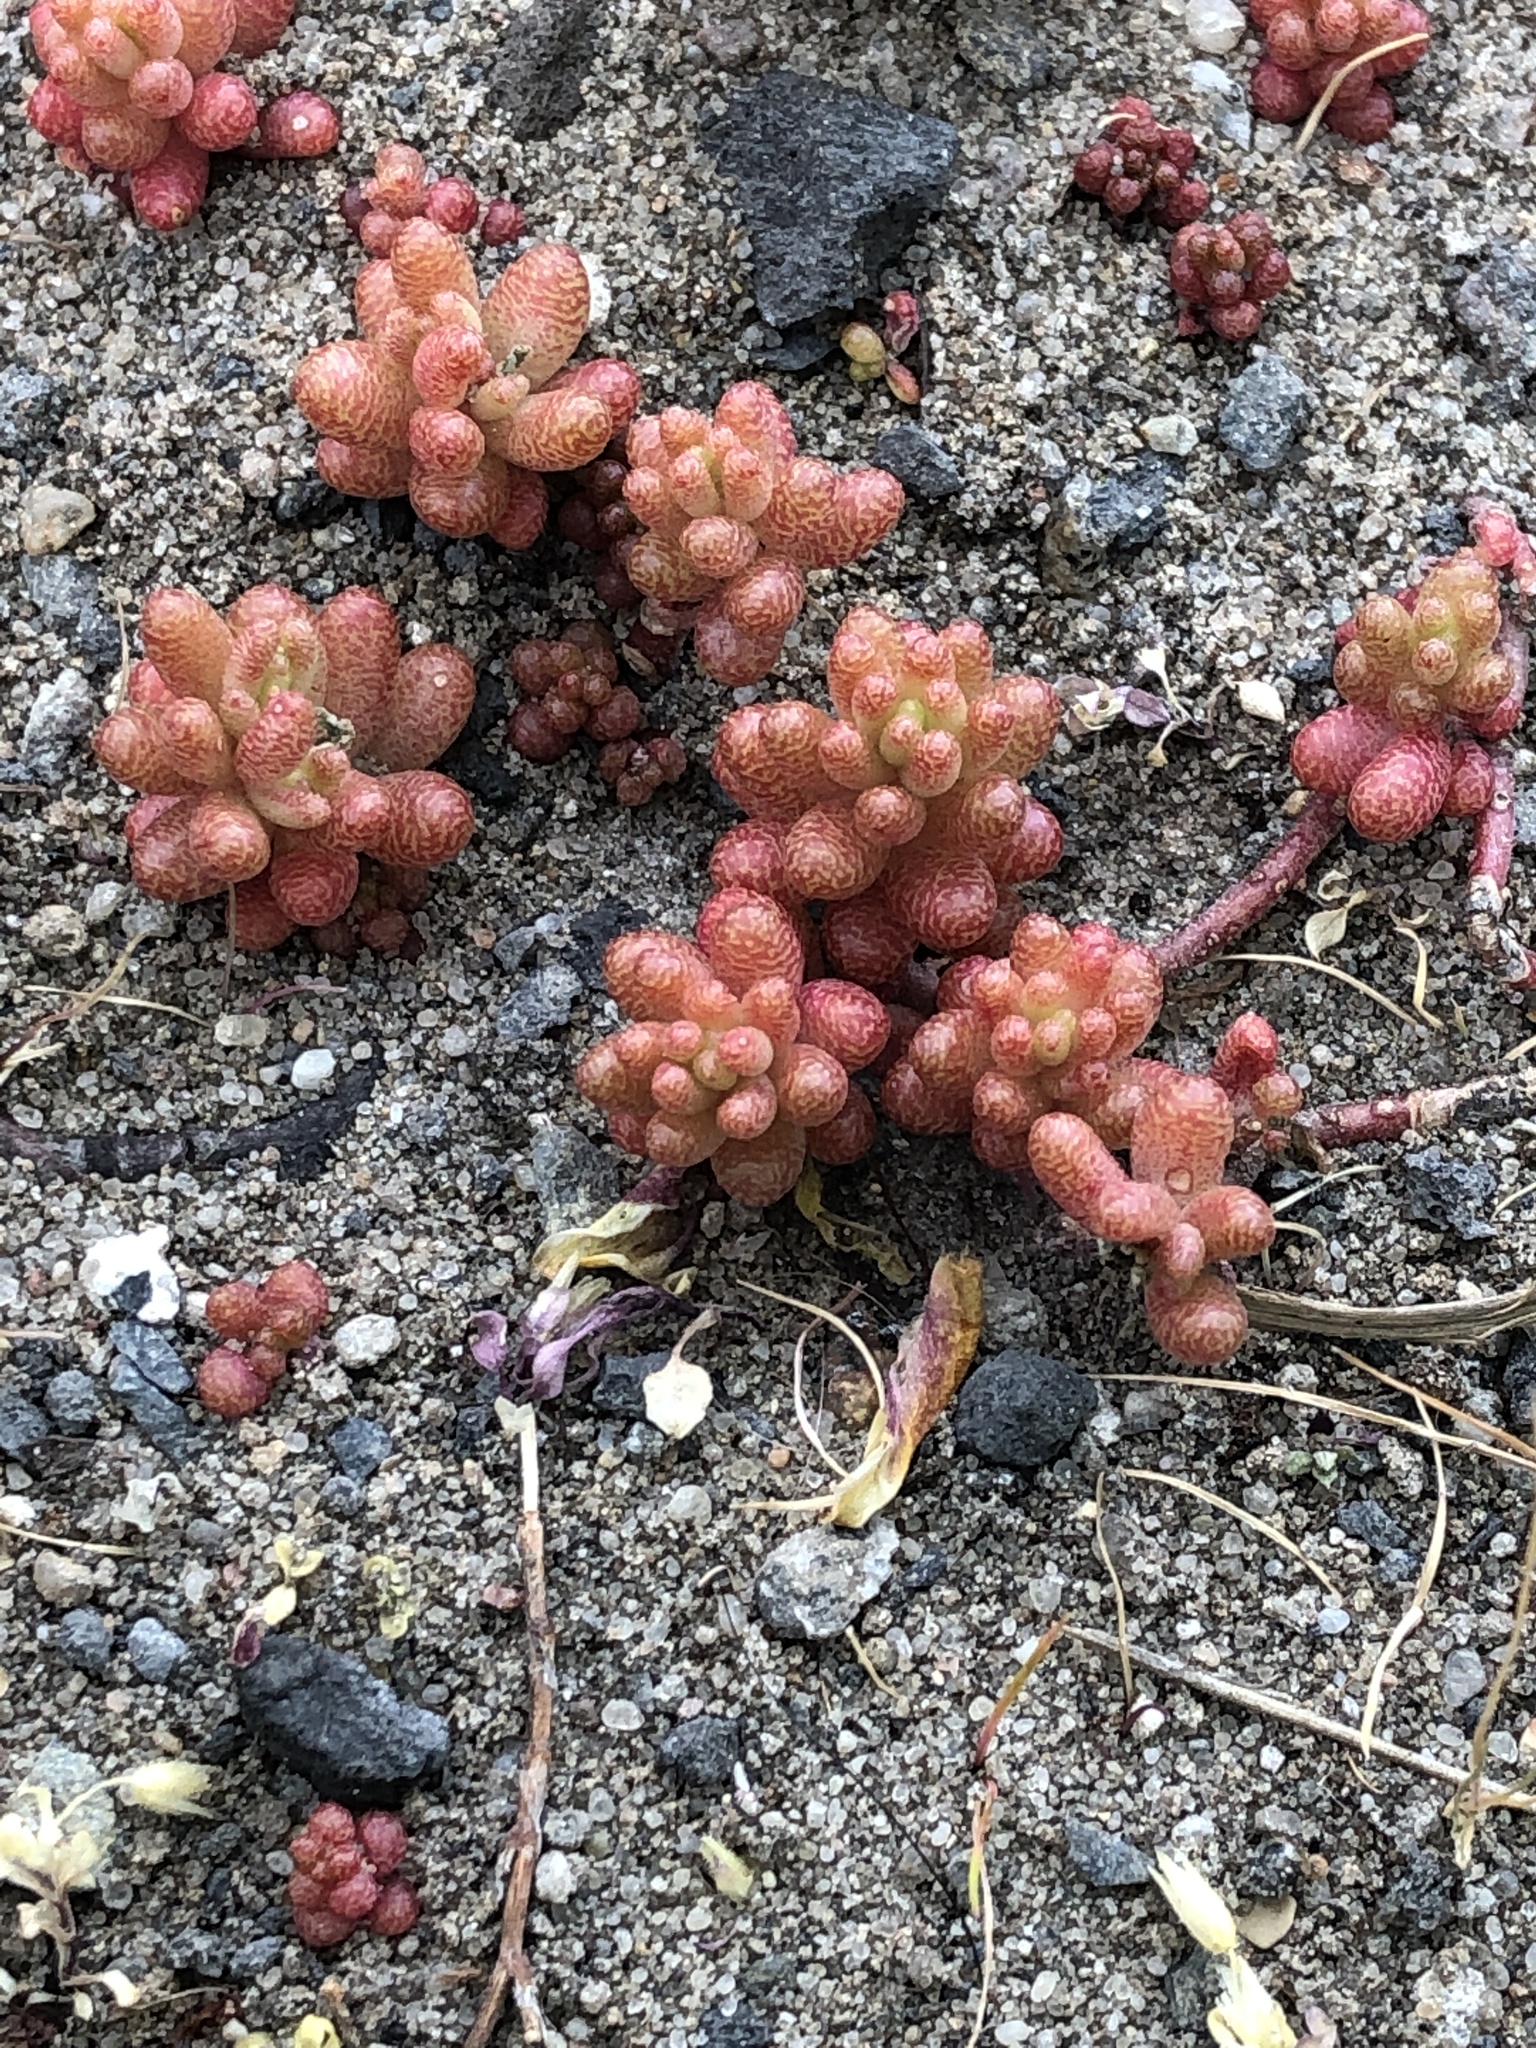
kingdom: Plantae
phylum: Tracheophyta
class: Magnoliopsida
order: Saxifragales
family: Crassulaceae
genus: Sedum
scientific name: Sedum album
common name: White stonecrop
